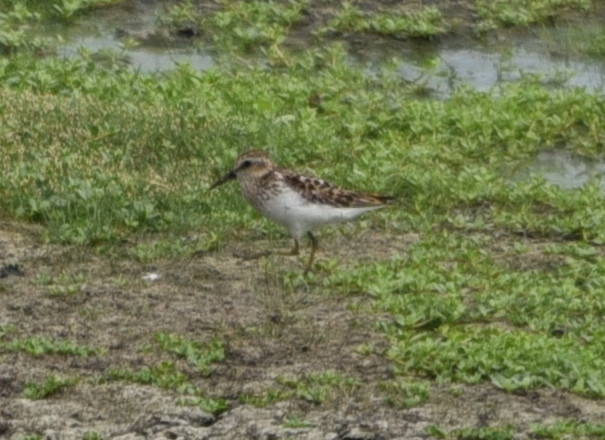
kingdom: Animalia
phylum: Chordata
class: Aves
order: Charadriiformes
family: Scolopacidae
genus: Calidris
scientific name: Calidris minutilla
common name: Least sandpiper
